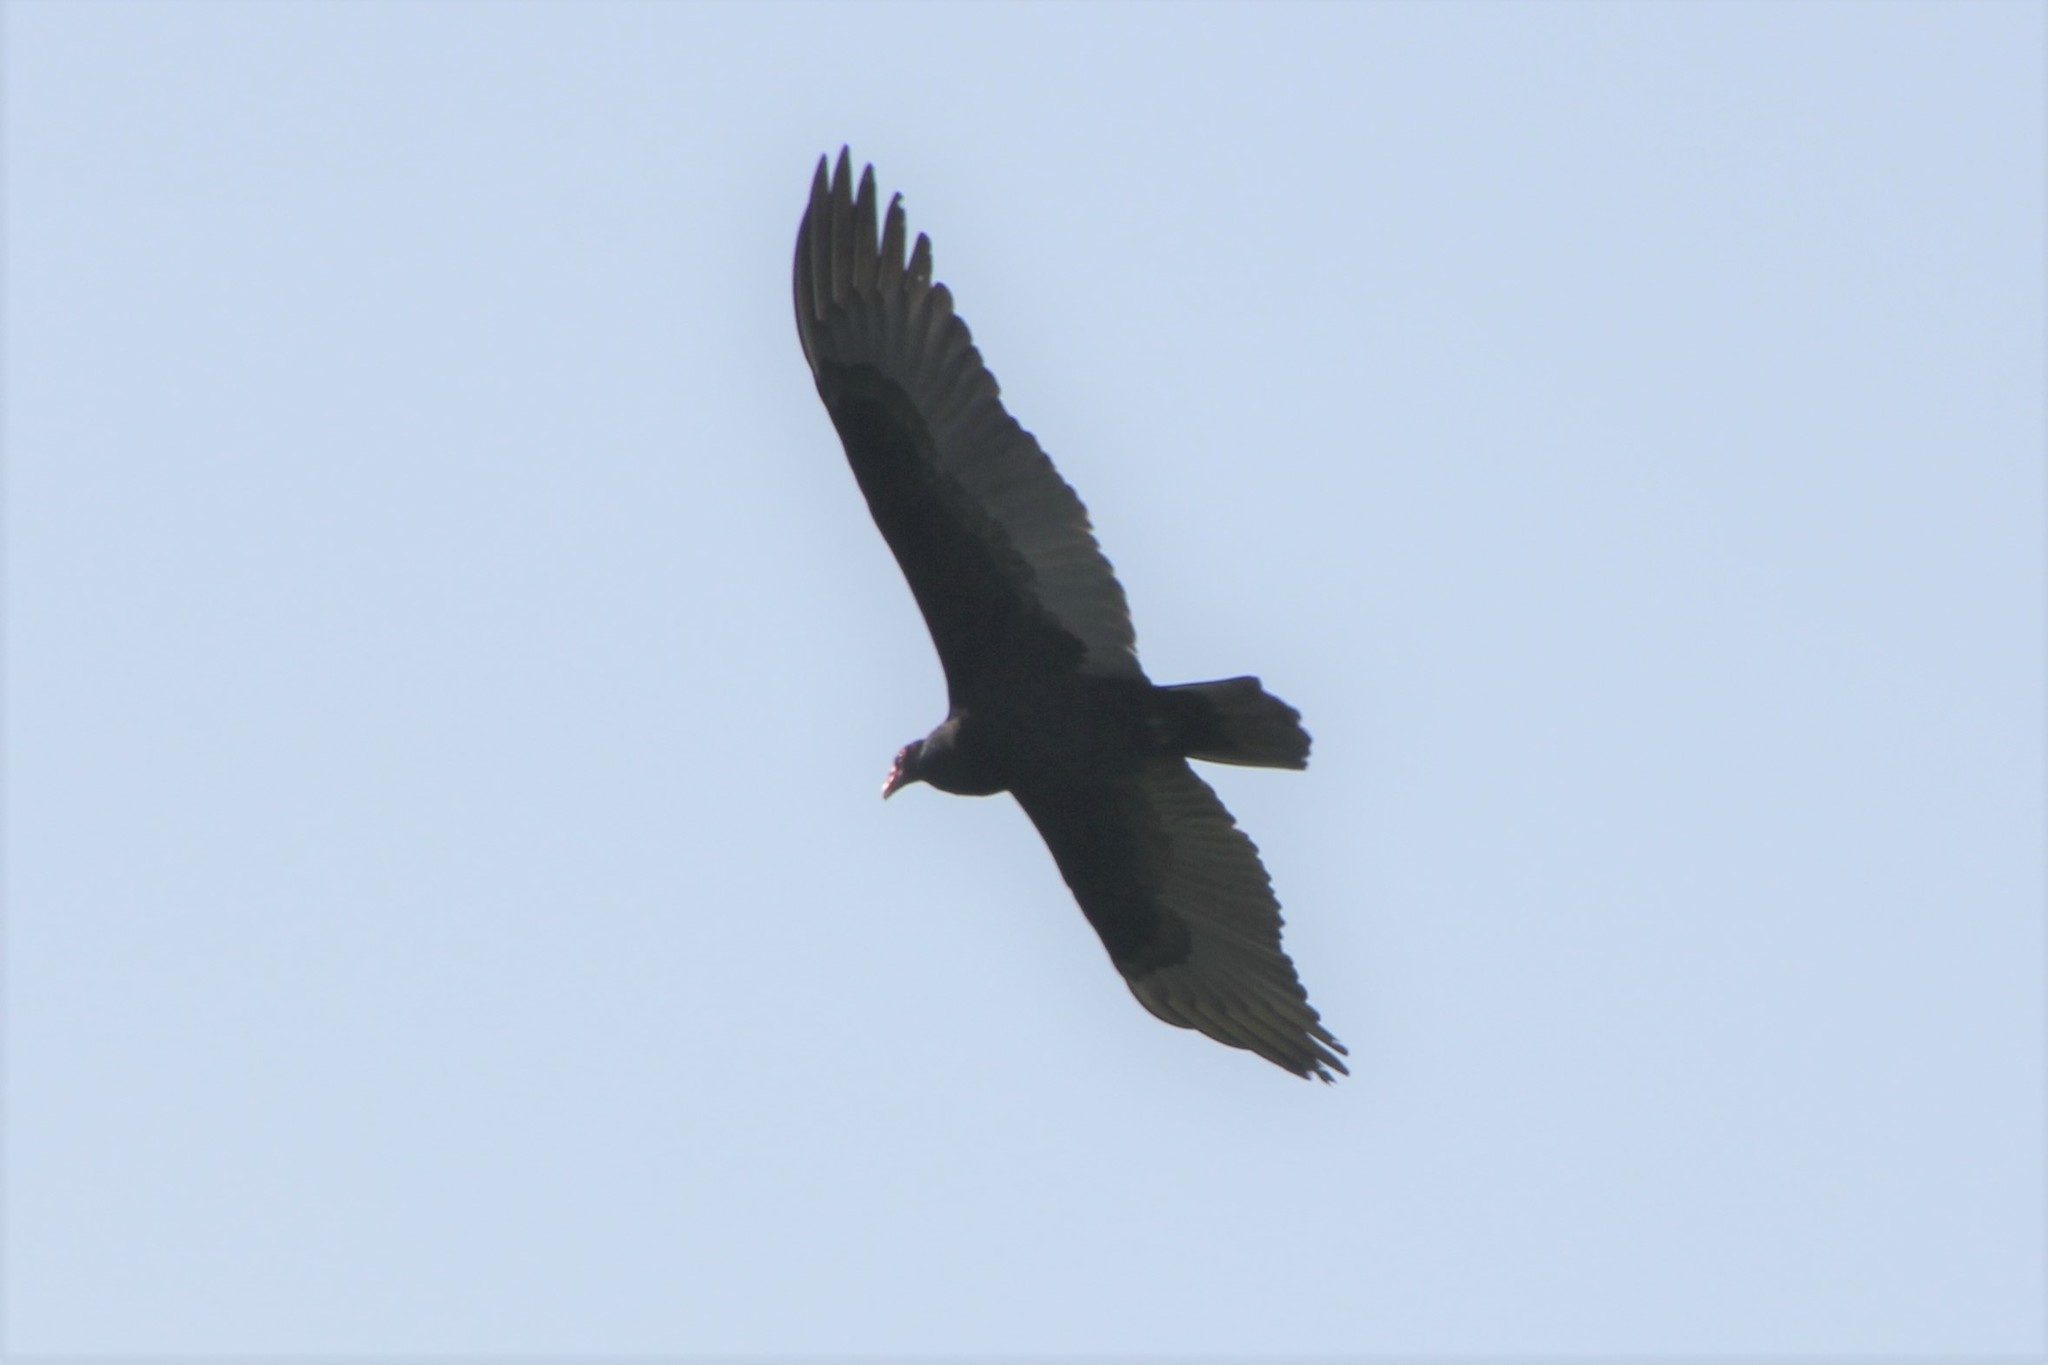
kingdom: Animalia
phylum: Chordata
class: Aves
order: Accipitriformes
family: Cathartidae
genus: Cathartes
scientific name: Cathartes aura
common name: Turkey vulture
